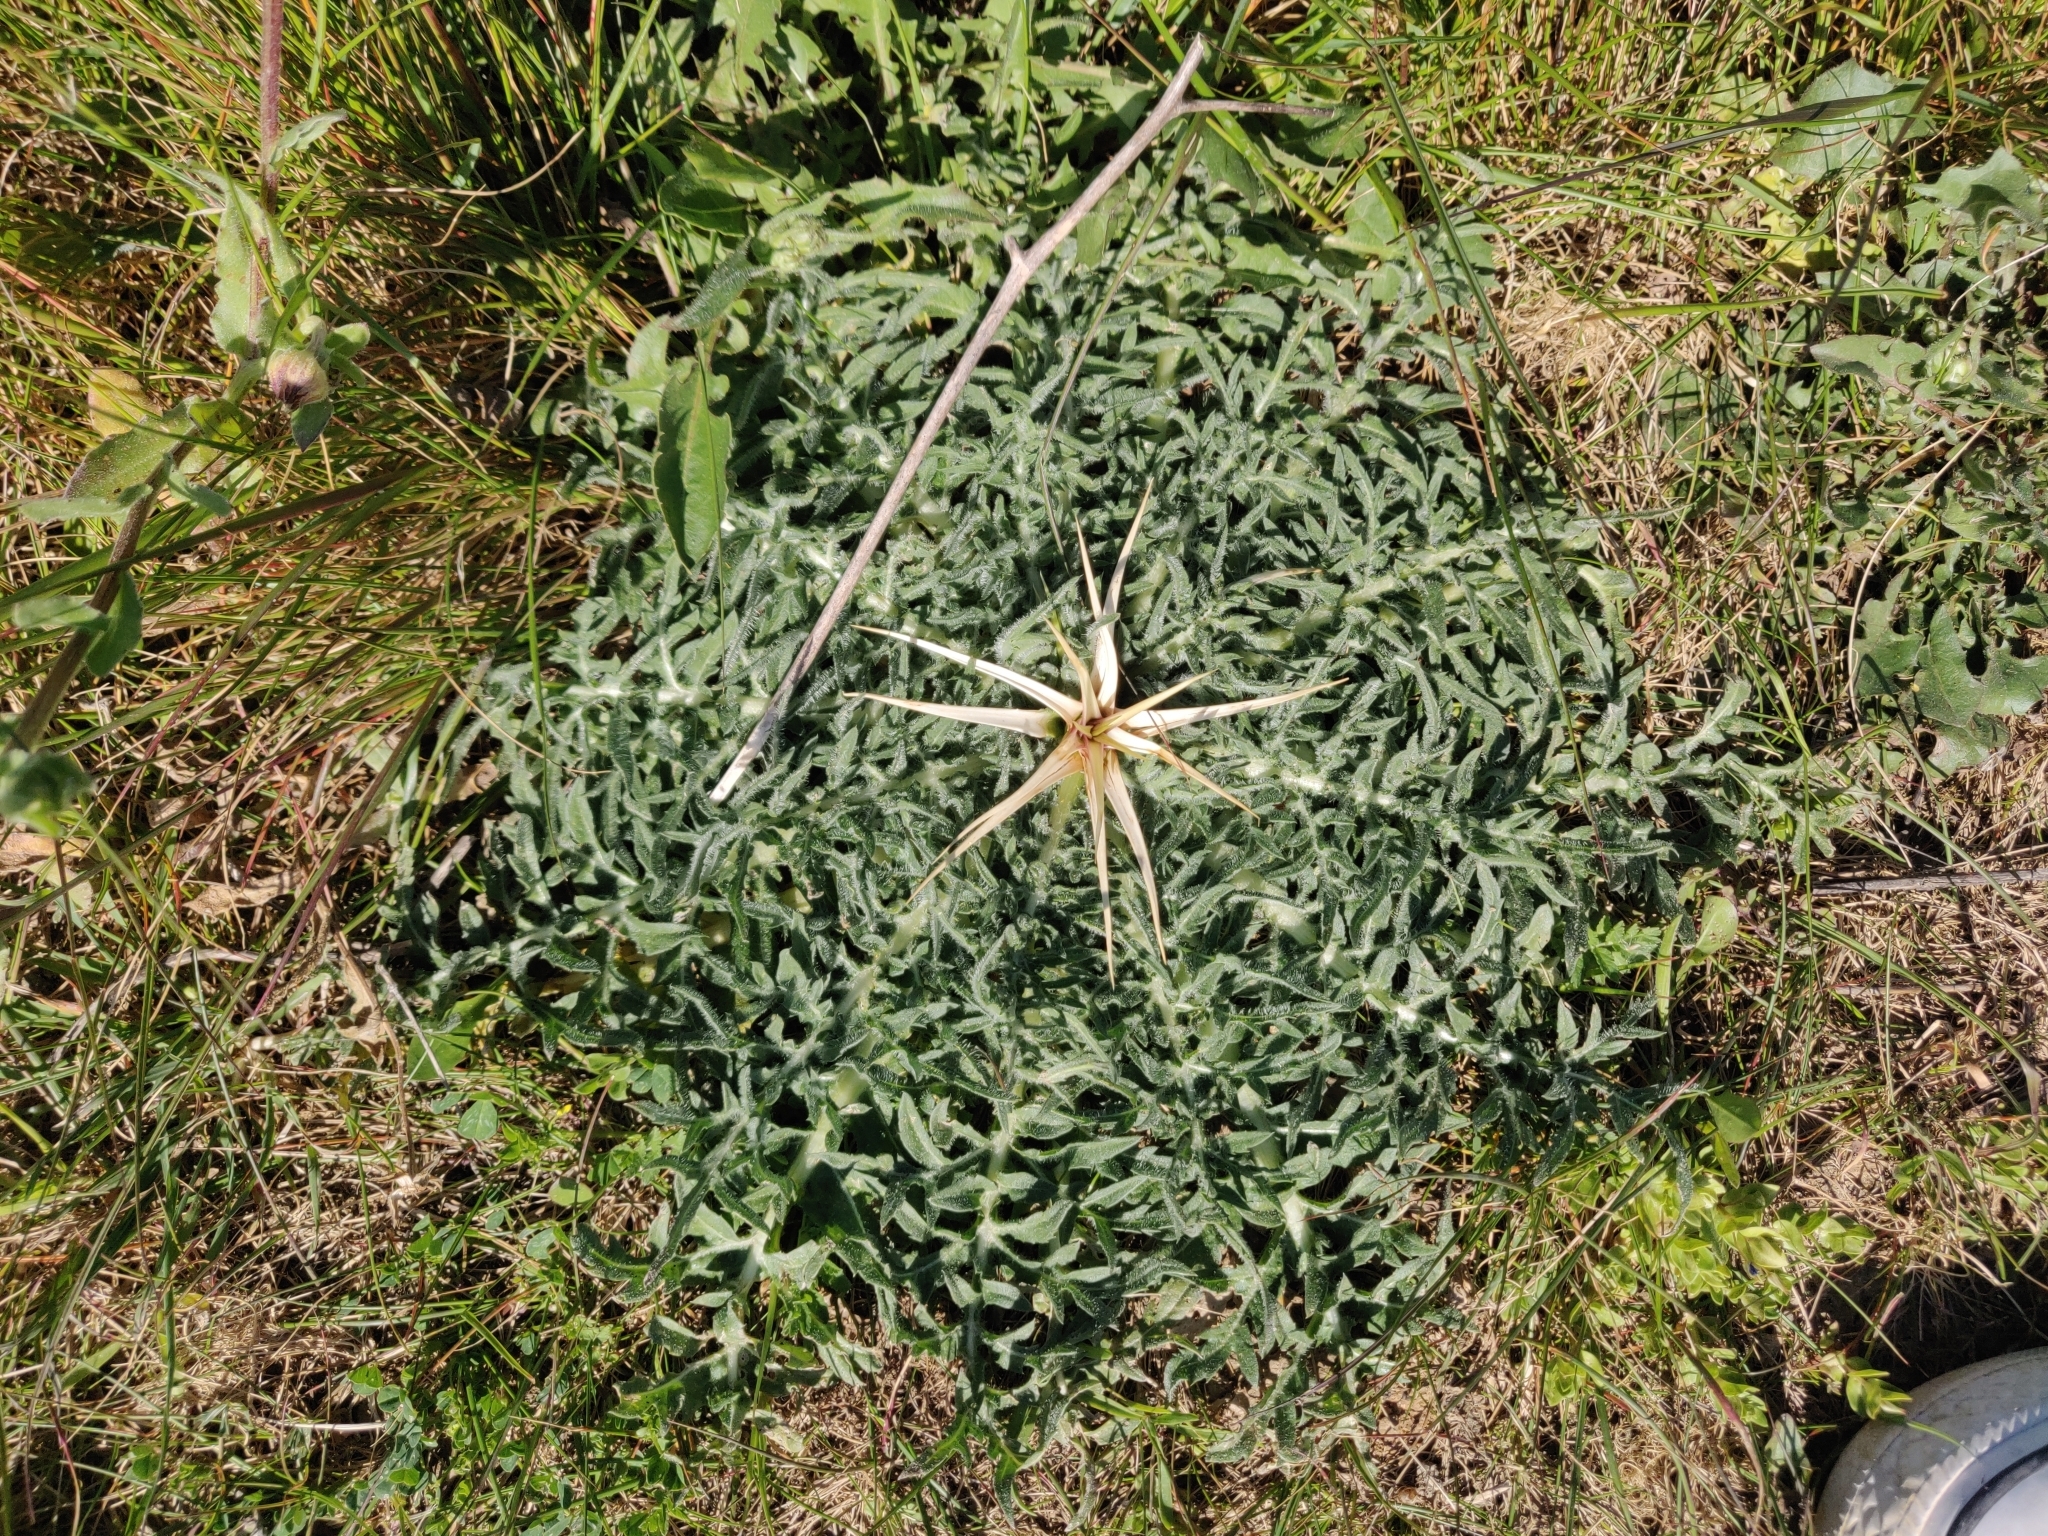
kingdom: Plantae
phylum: Tracheophyta
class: Magnoliopsida
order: Asterales
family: Asteraceae
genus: Centaurea
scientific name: Centaurea calcitrapa
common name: Red star-thistle
